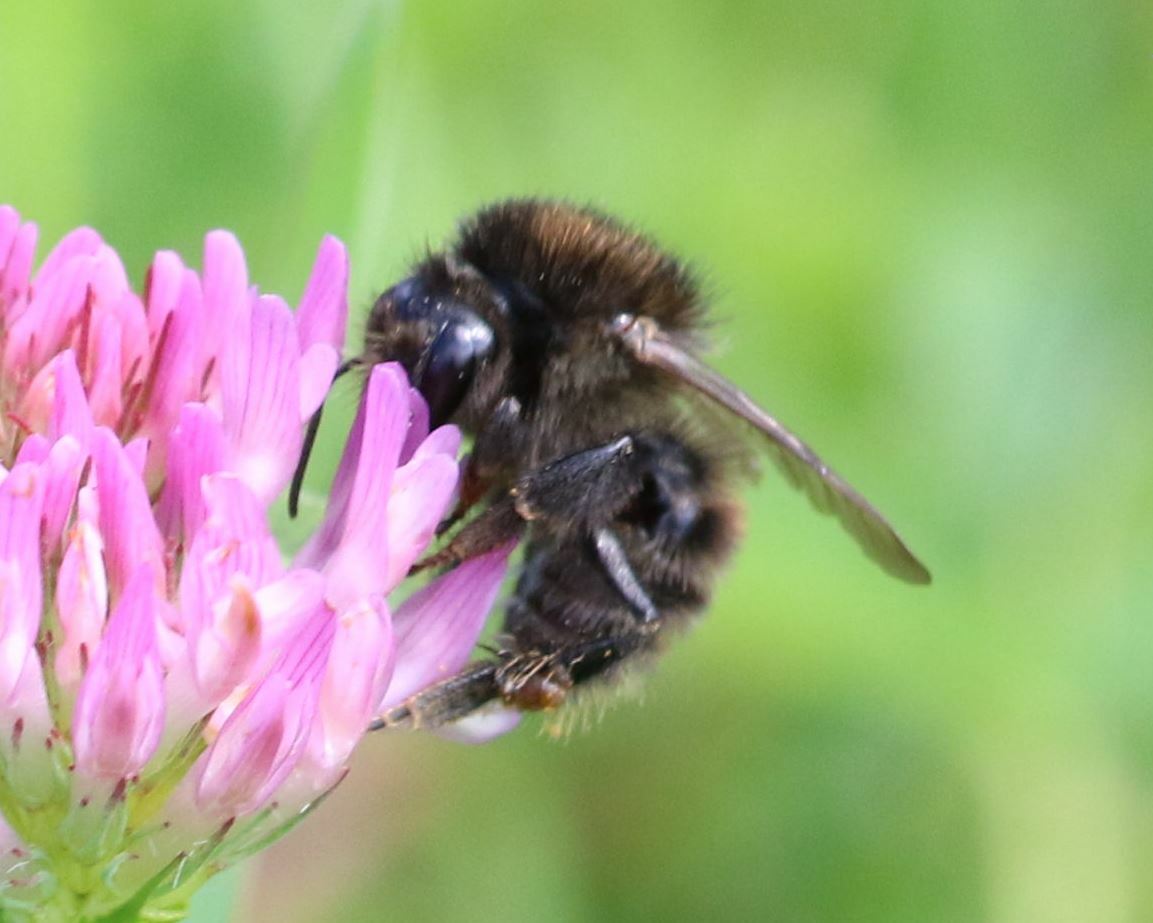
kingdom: Animalia
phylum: Arthropoda
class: Insecta
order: Hymenoptera
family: Apidae
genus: Bombus
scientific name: Bombus humilis
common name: Brown-banded carder-bee
